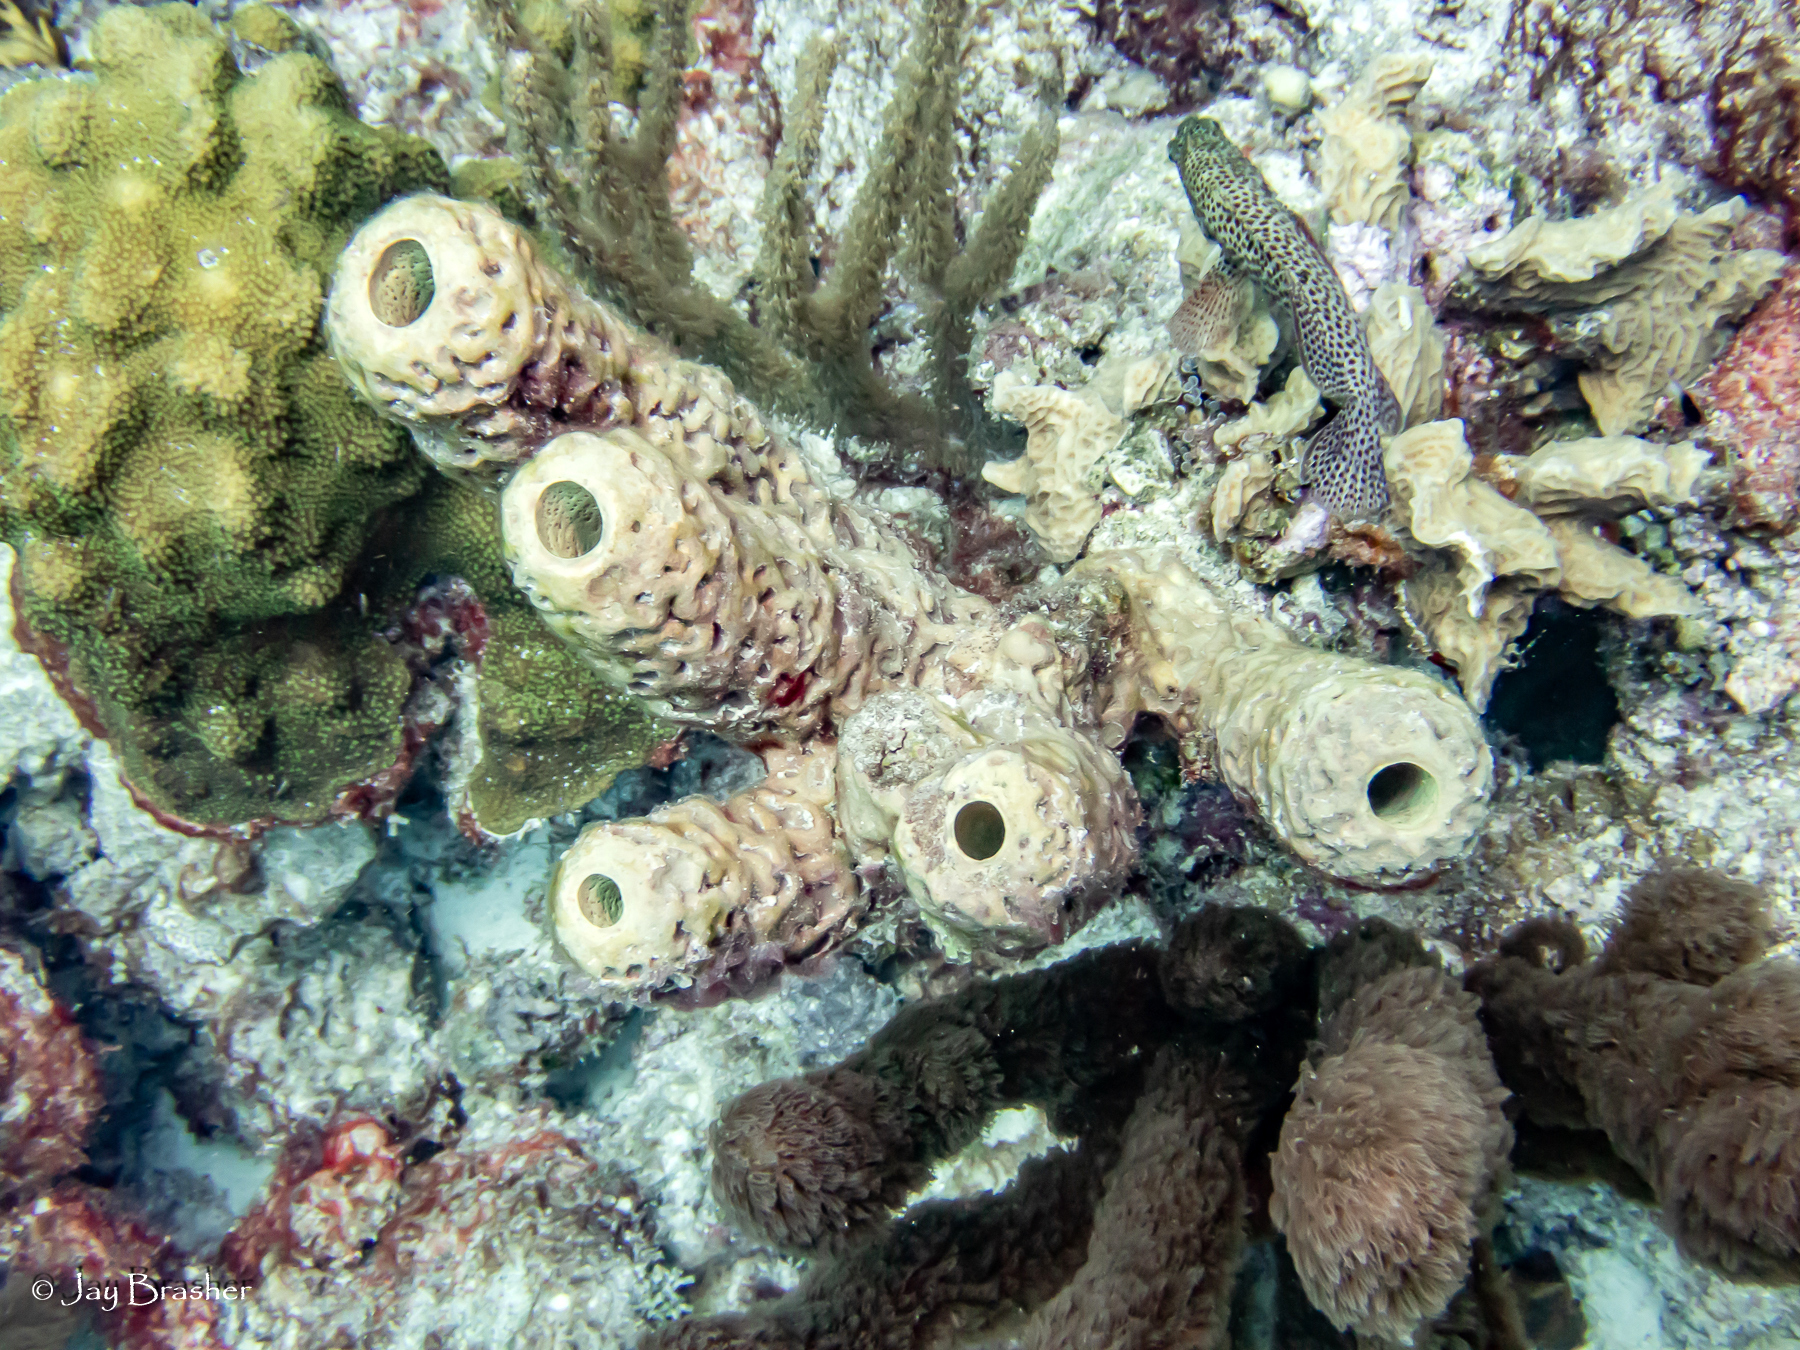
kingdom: Animalia
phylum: Porifera
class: Demospongiae
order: Verongiida
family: Aplysinidae
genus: Aplysina
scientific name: Aplysina archeri
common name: Stove-pipe sponge
